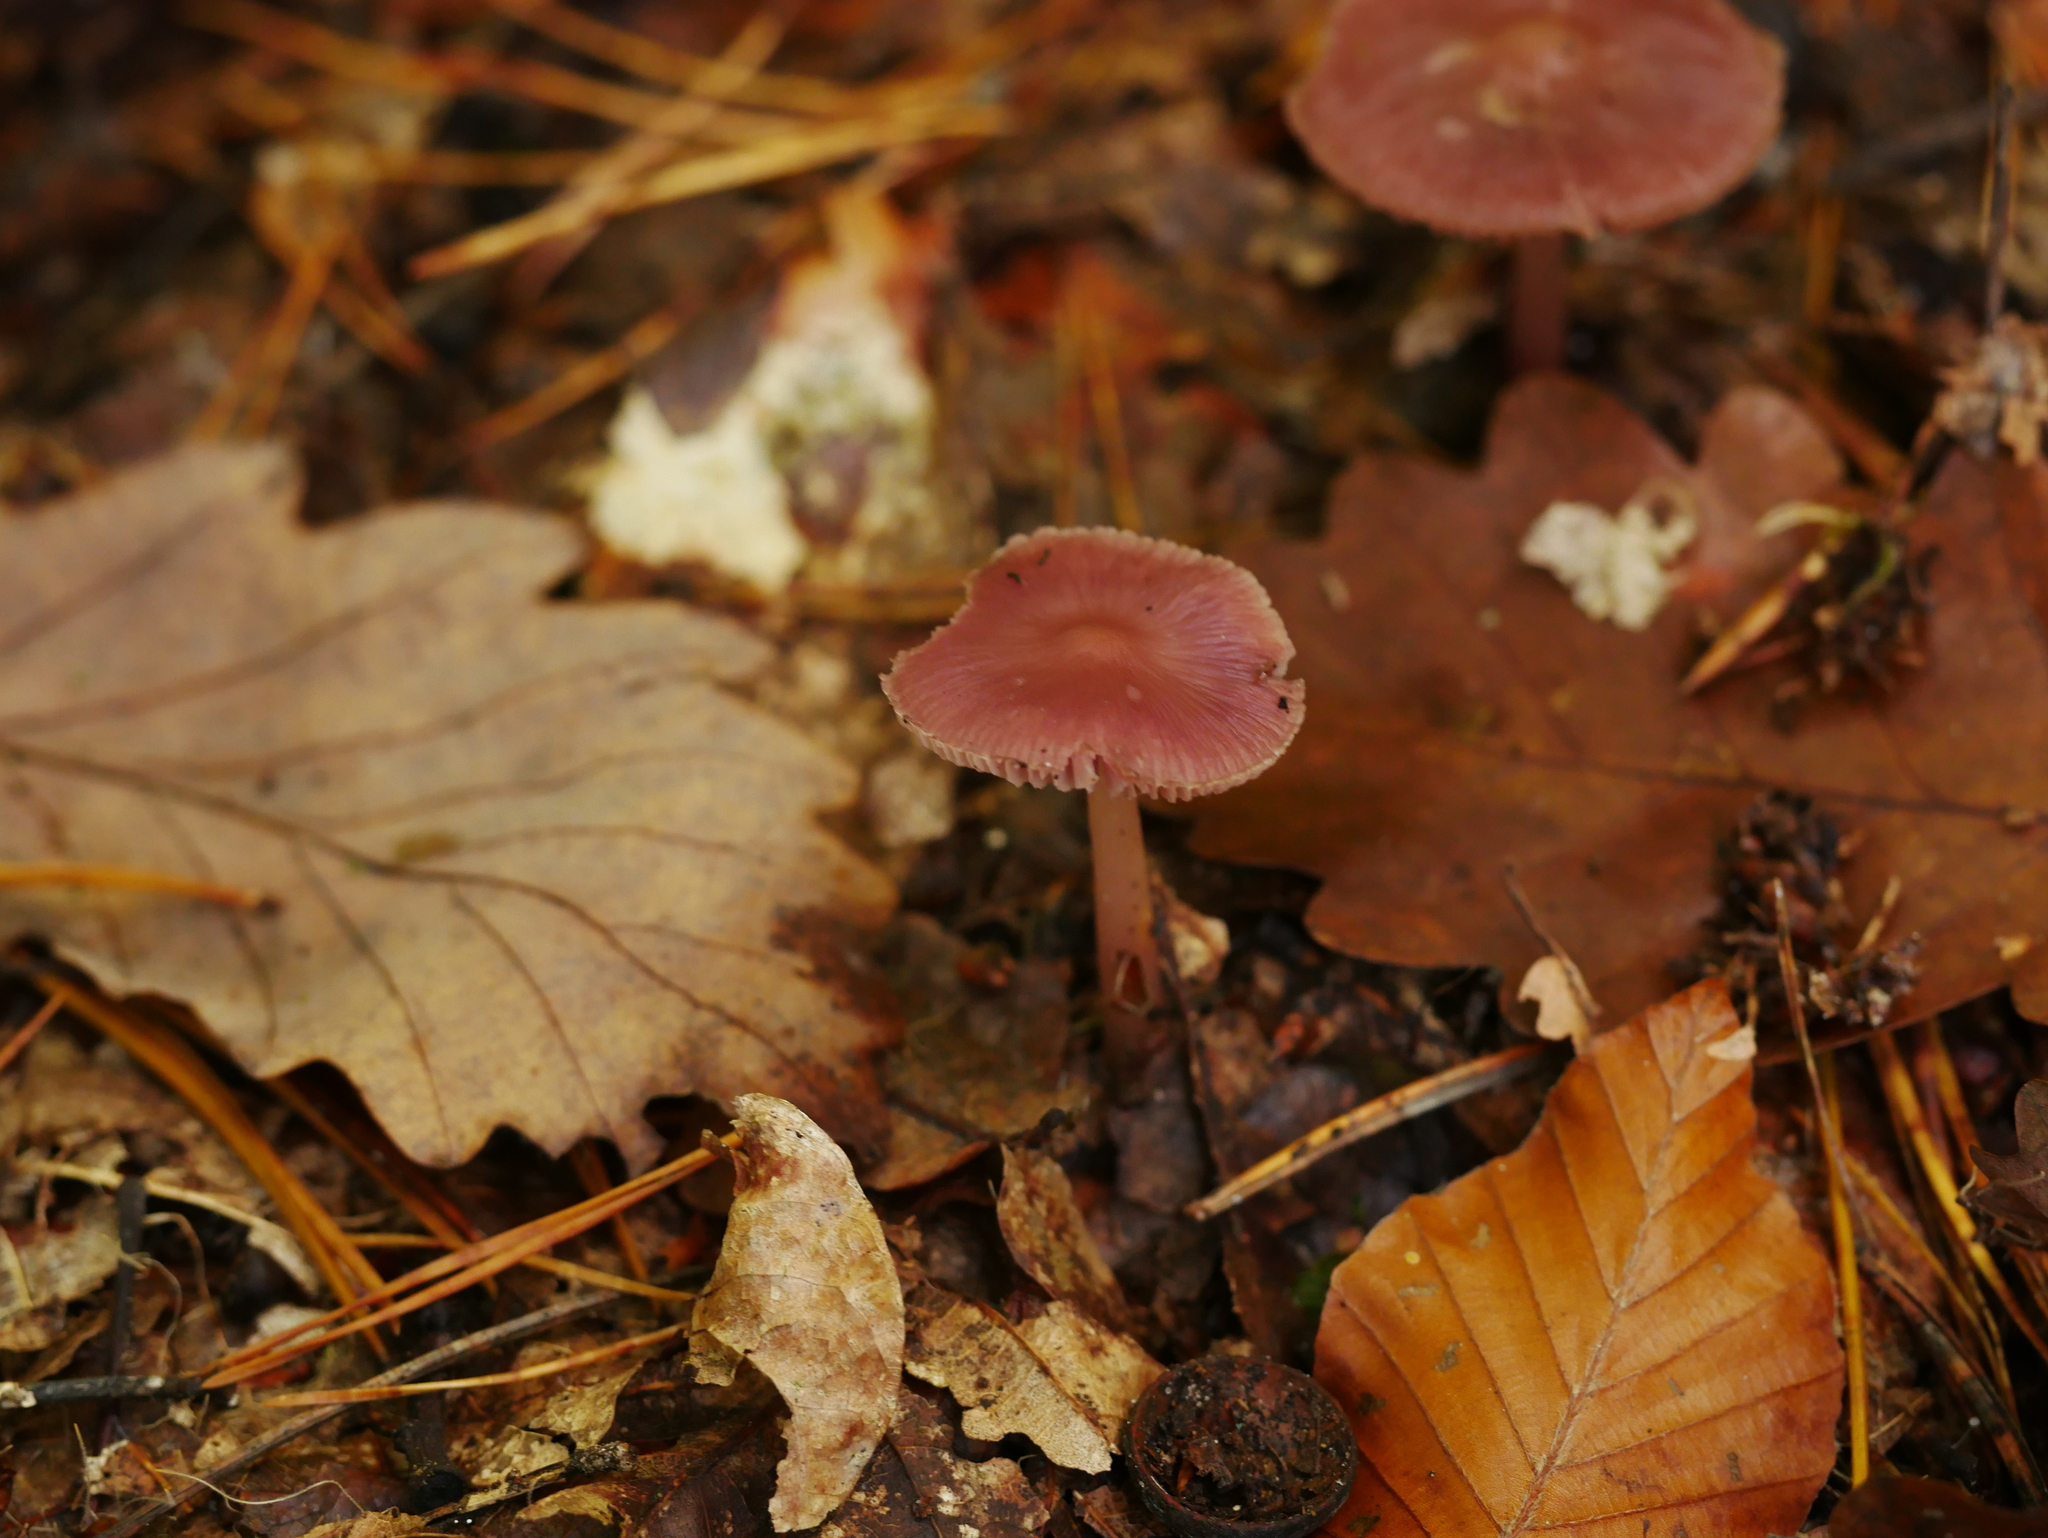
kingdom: Fungi
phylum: Basidiomycota
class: Agaricomycetes
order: Agaricales
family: Mycenaceae
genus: Mycena
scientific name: Mycena rosea
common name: Rosy bonnet
